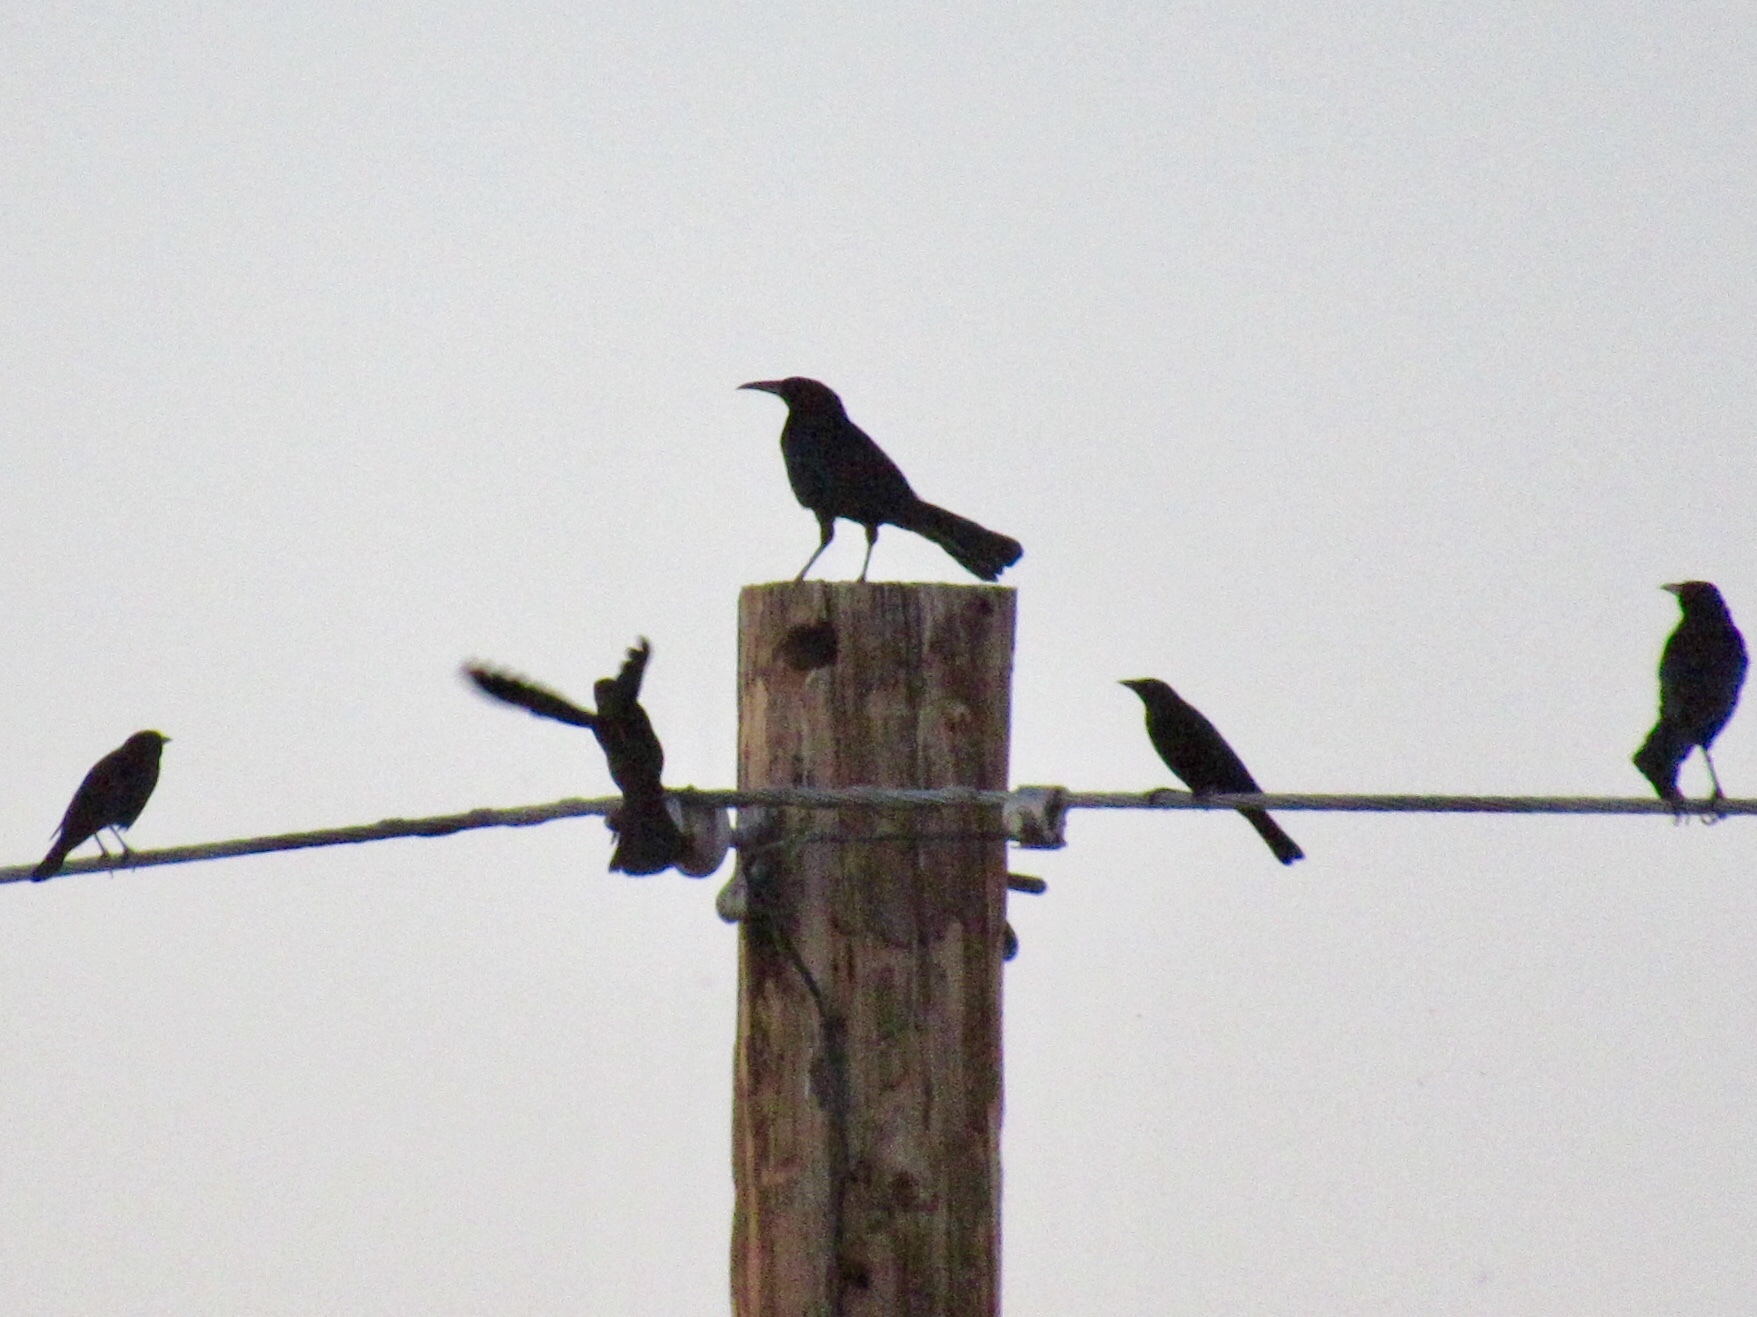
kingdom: Animalia
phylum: Chordata
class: Aves
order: Passeriformes
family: Icteridae
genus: Quiscalus
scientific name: Quiscalus mexicanus
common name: Great-tailed grackle
